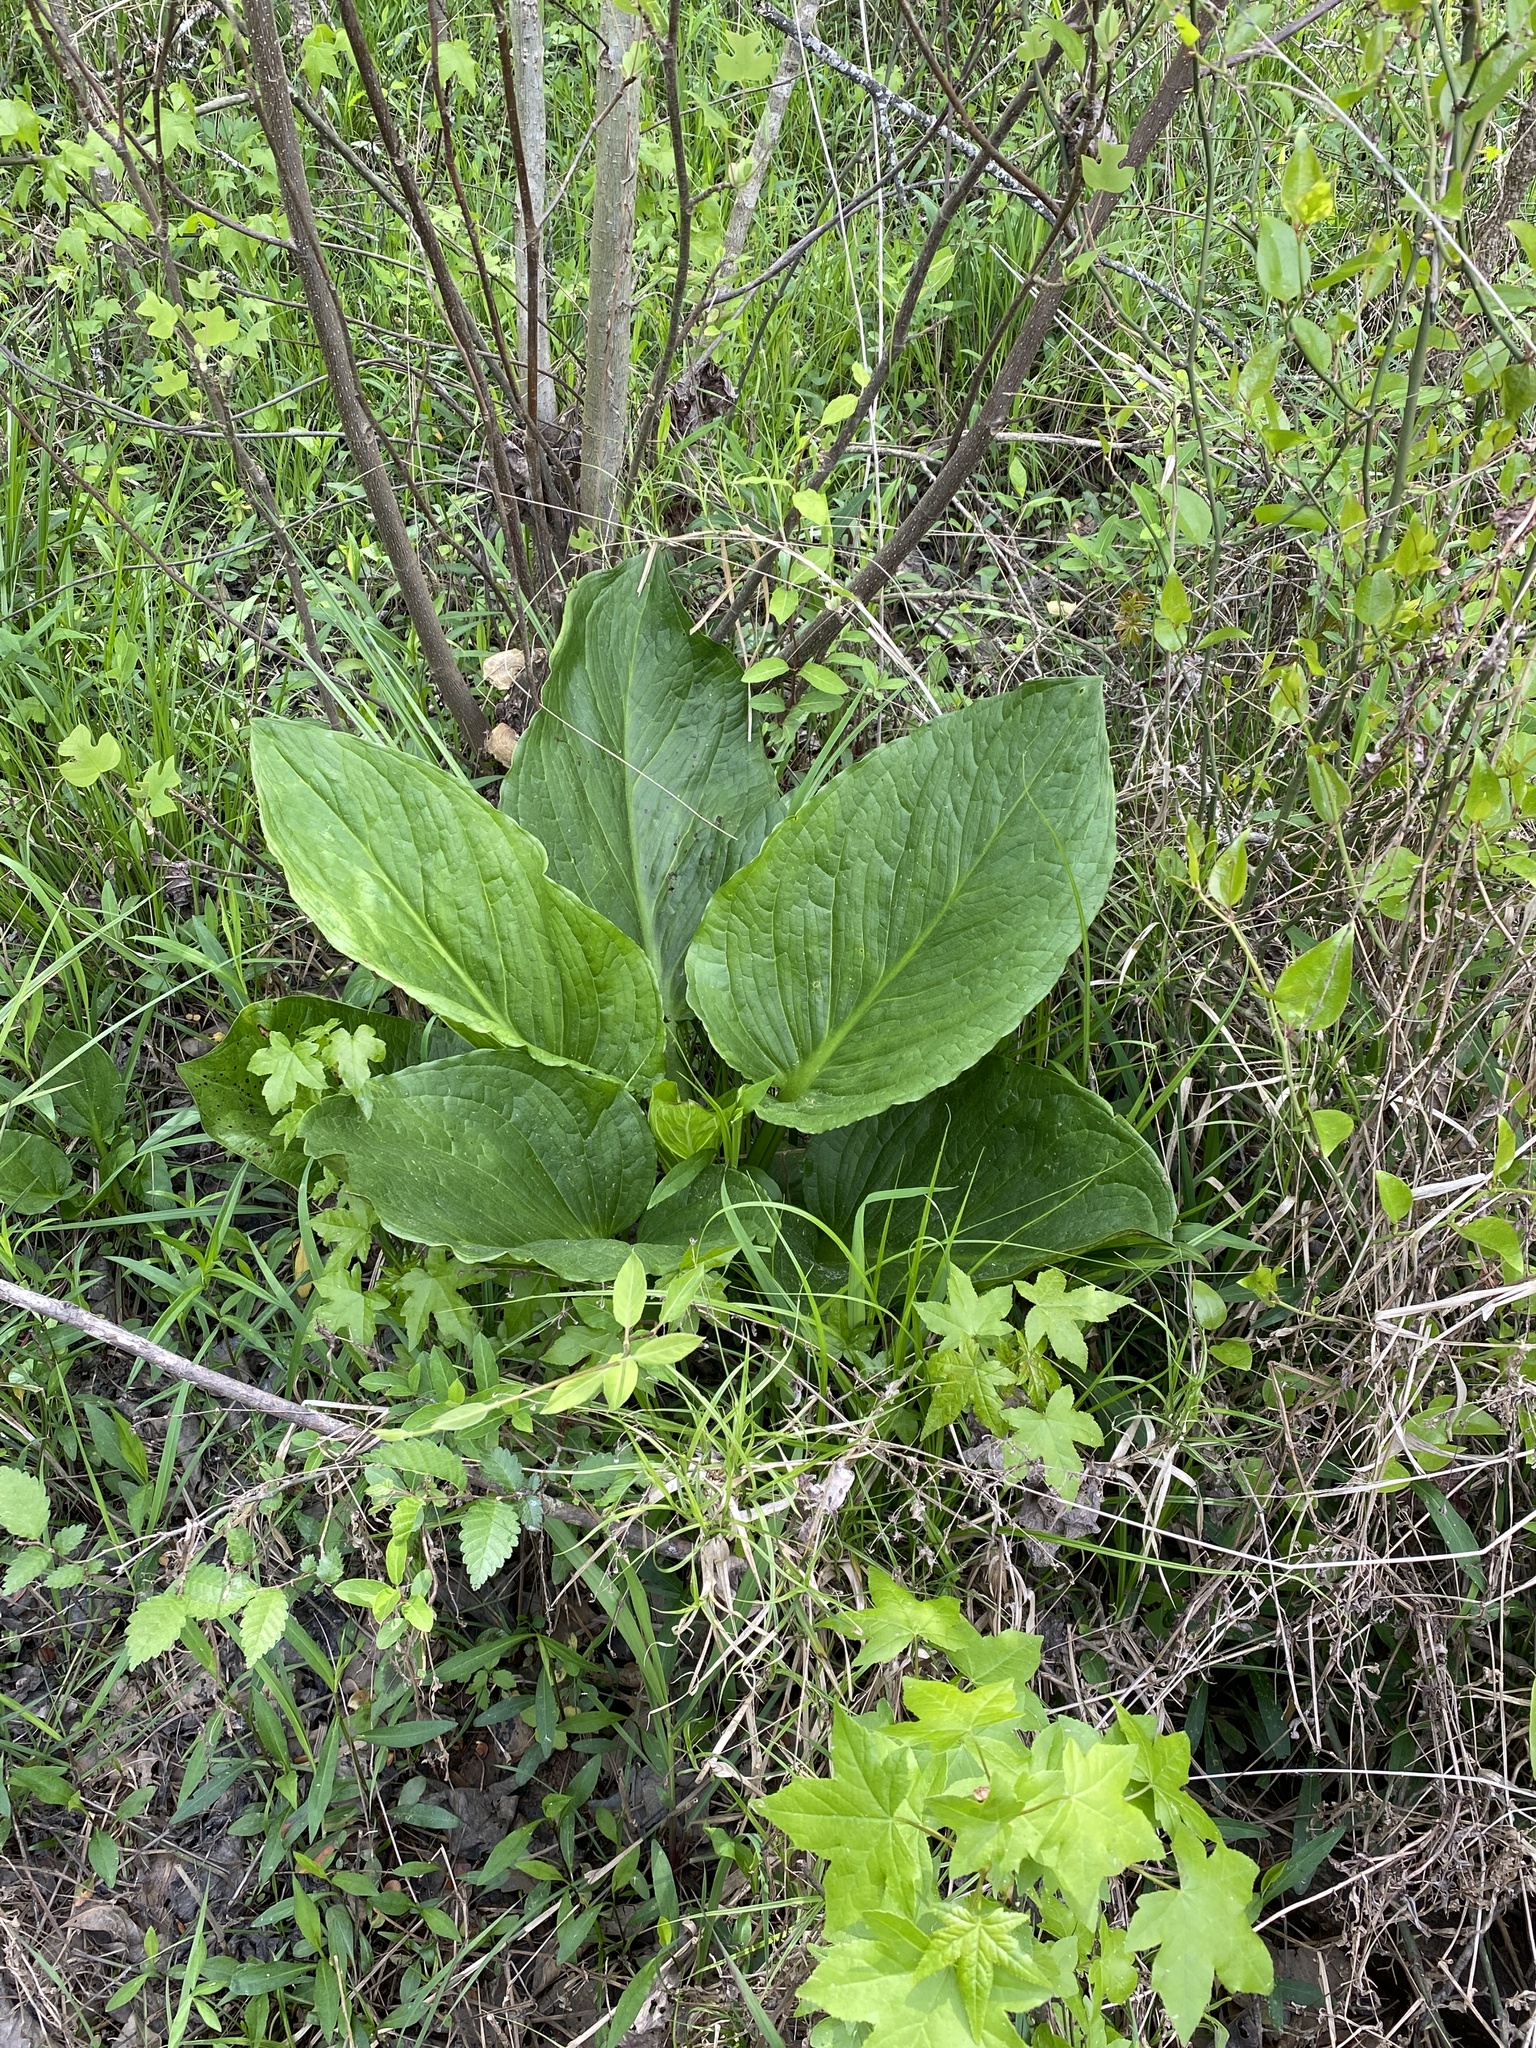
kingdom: Plantae
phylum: Tracheophyta
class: Liliopsida
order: Alismatales
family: Araceae
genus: Symplocarpus
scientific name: Symplocarpus foetidus
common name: Eastern skunk cabbage
